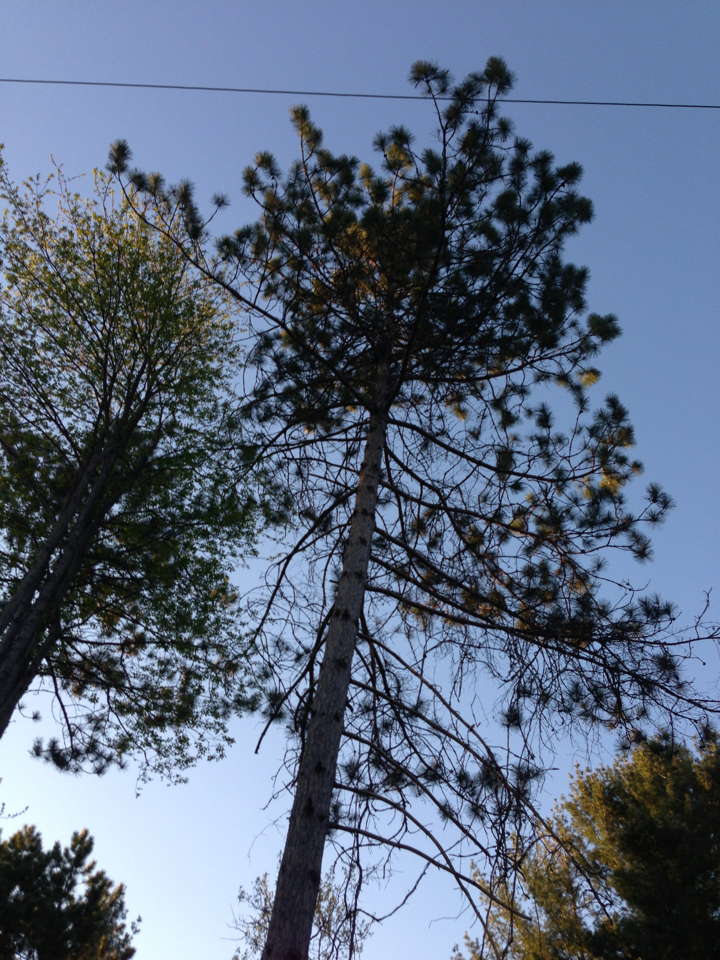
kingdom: Plantae
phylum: Tracheophyta
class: Pinopsida
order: Pinales
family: Pinaceae
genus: Pinus
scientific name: Pinus resinosa
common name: Norway pine
